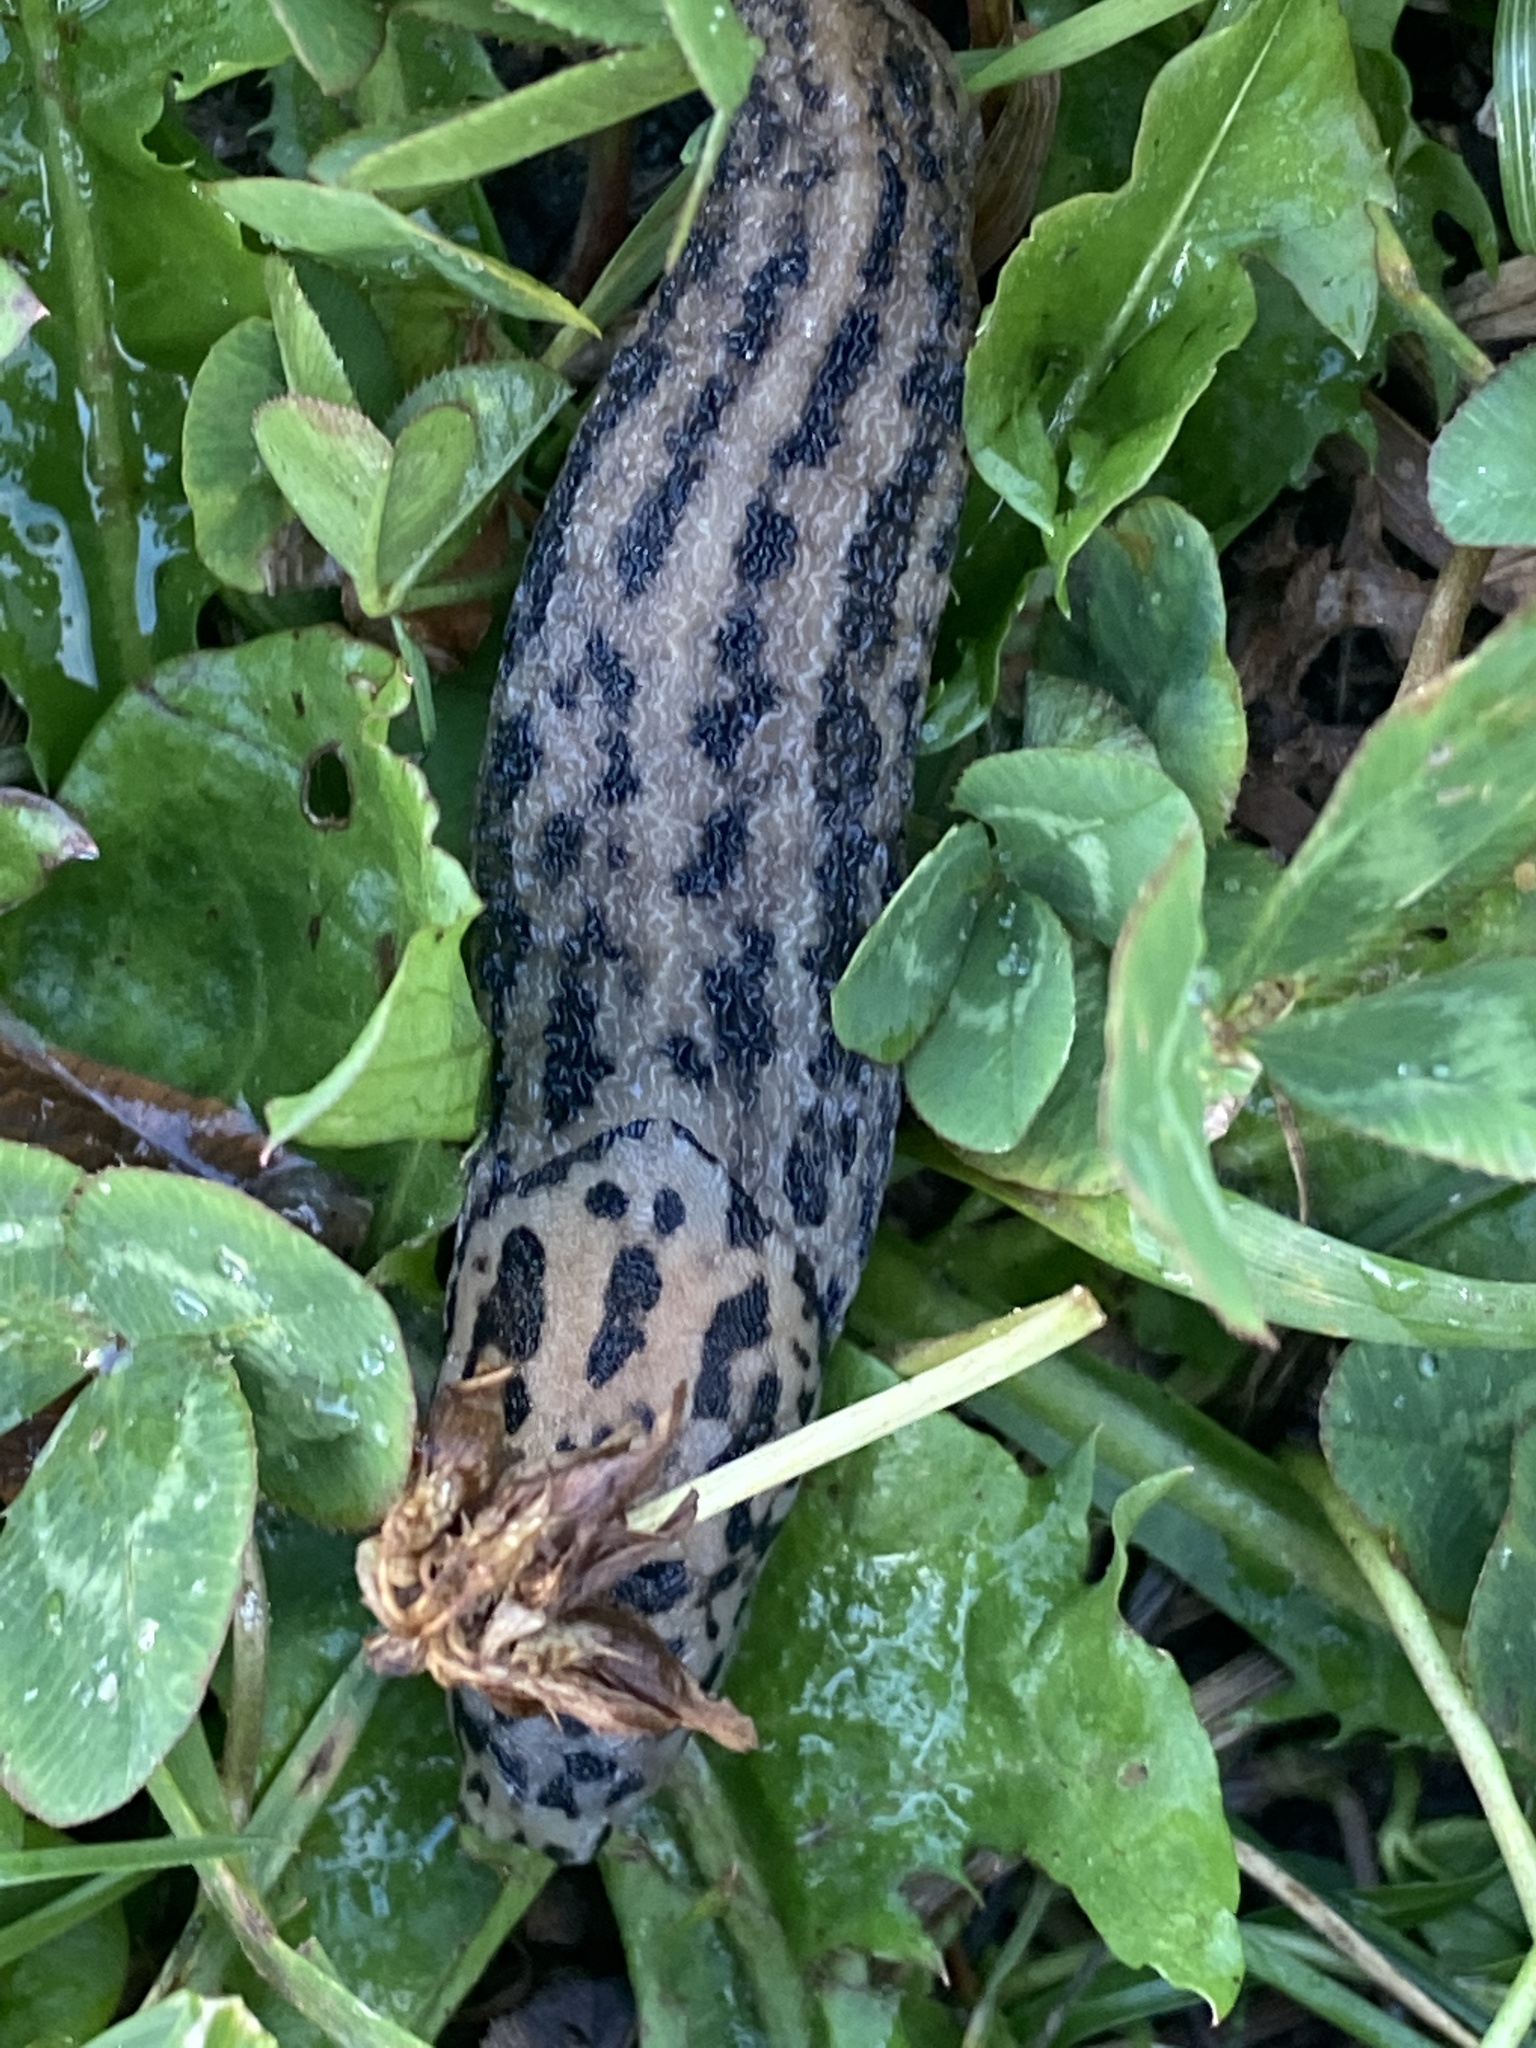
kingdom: Animalia
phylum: Mollusca
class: Gastropoda
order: Stylommatophora
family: Limacidae
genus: Limax
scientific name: Limax maximus
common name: Great grey slug
